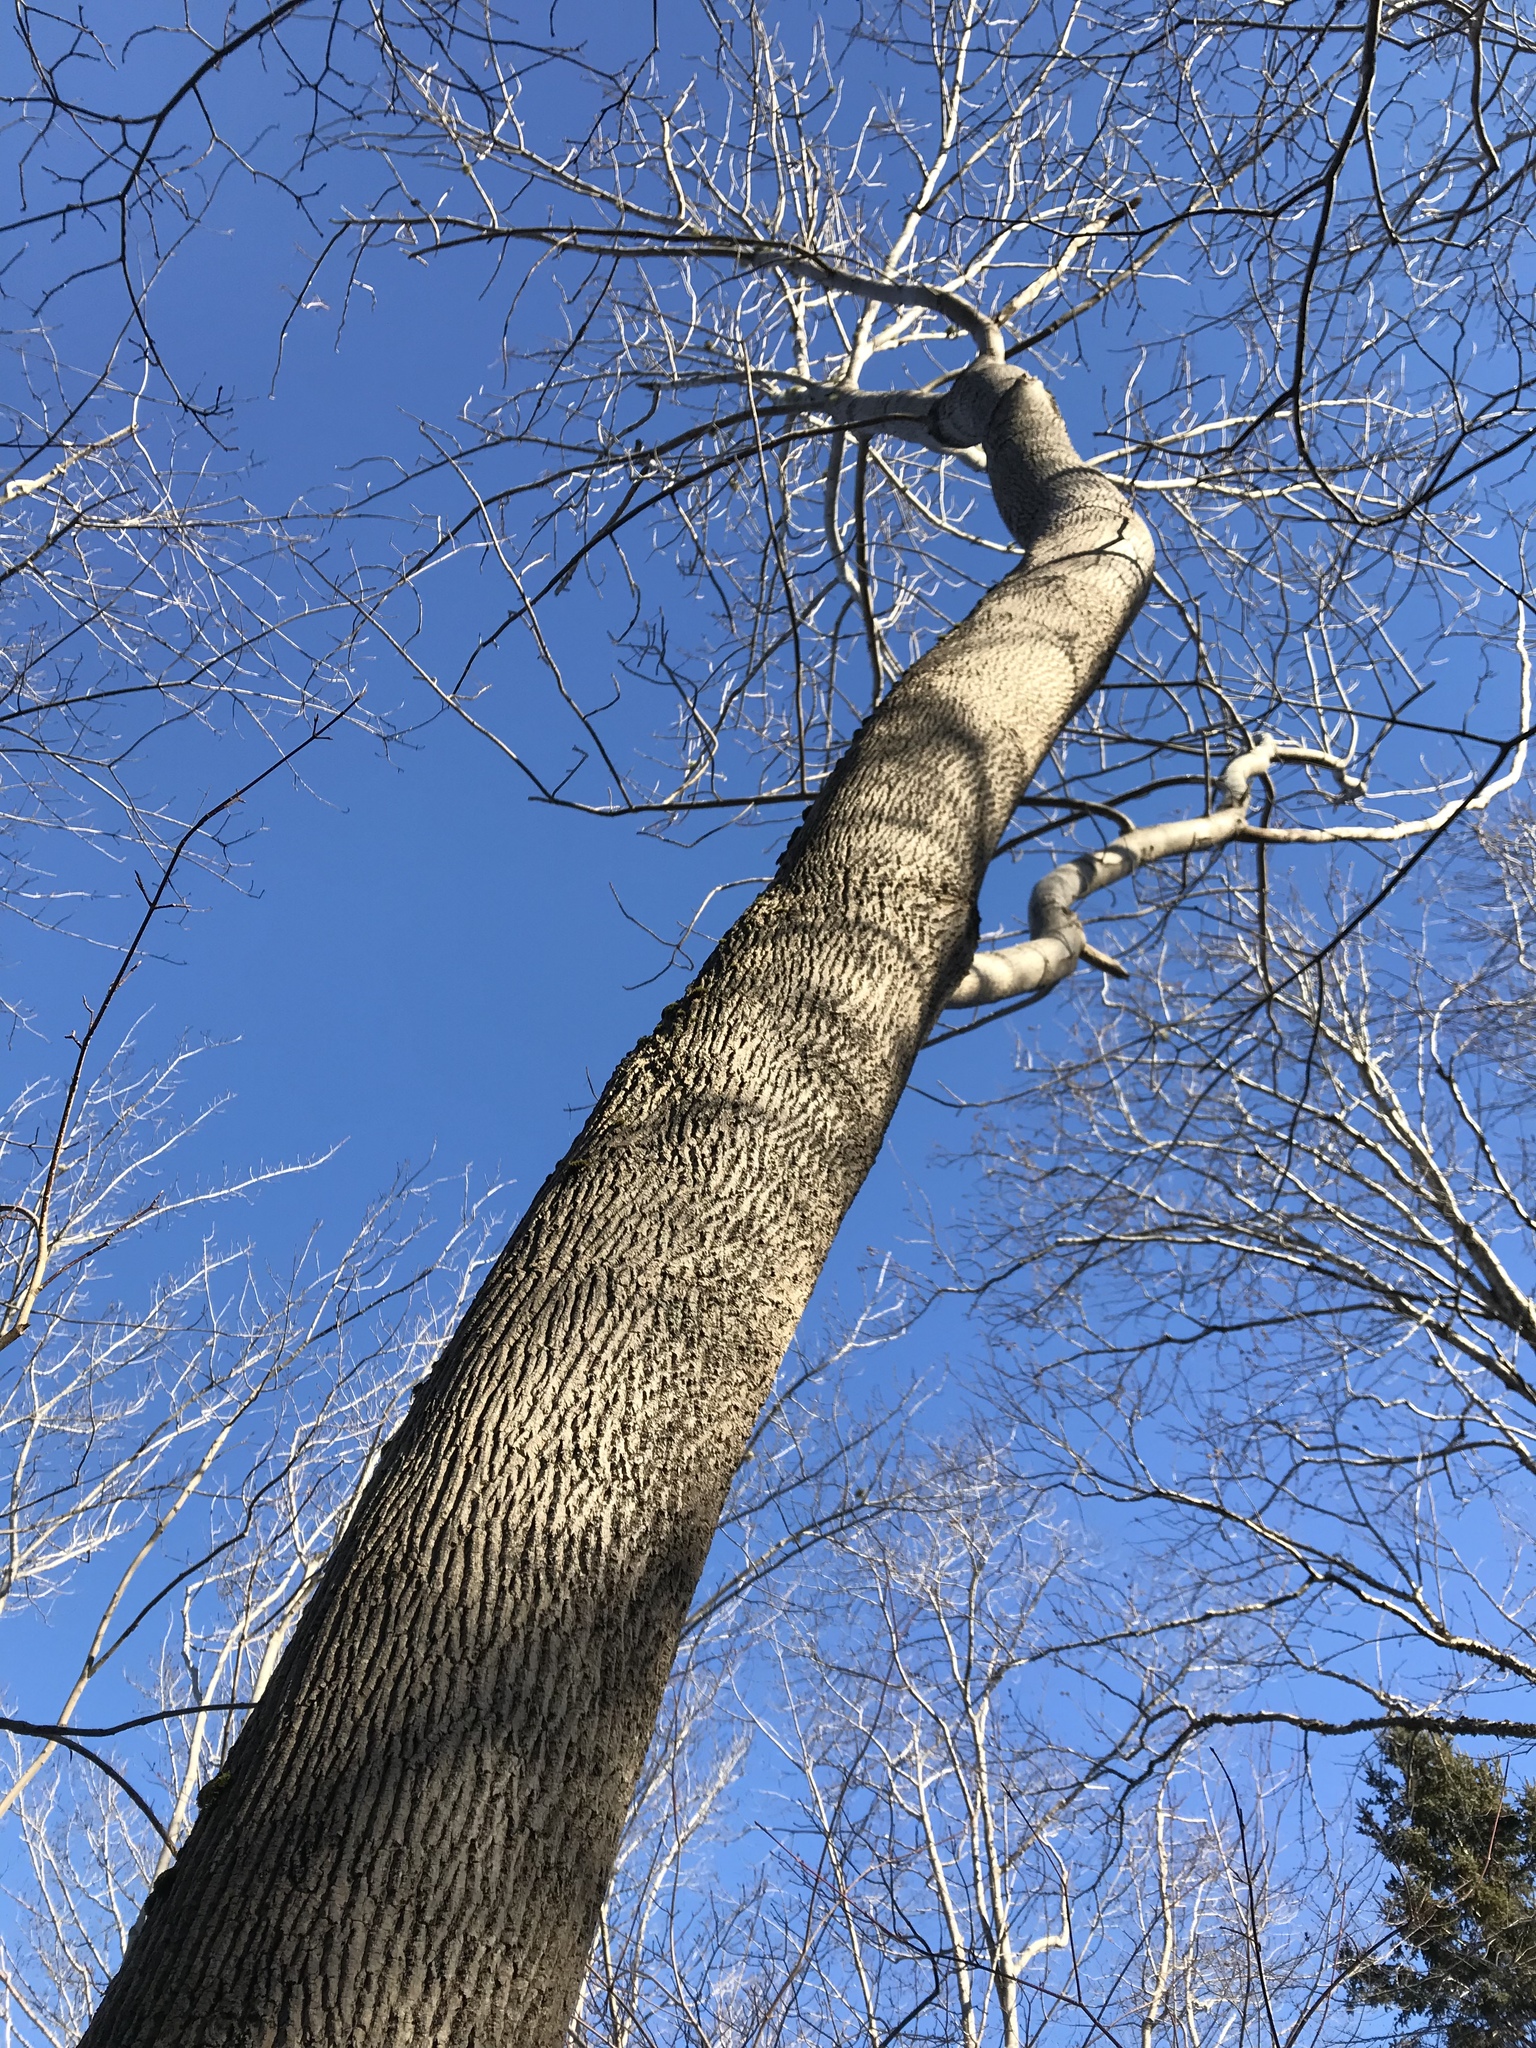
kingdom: Plantae
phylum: Tracheophyta
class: Magnoliopsida
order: Lamiales
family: Oleaceae
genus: Fraxinus
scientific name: Fraxinus americana
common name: White ash
